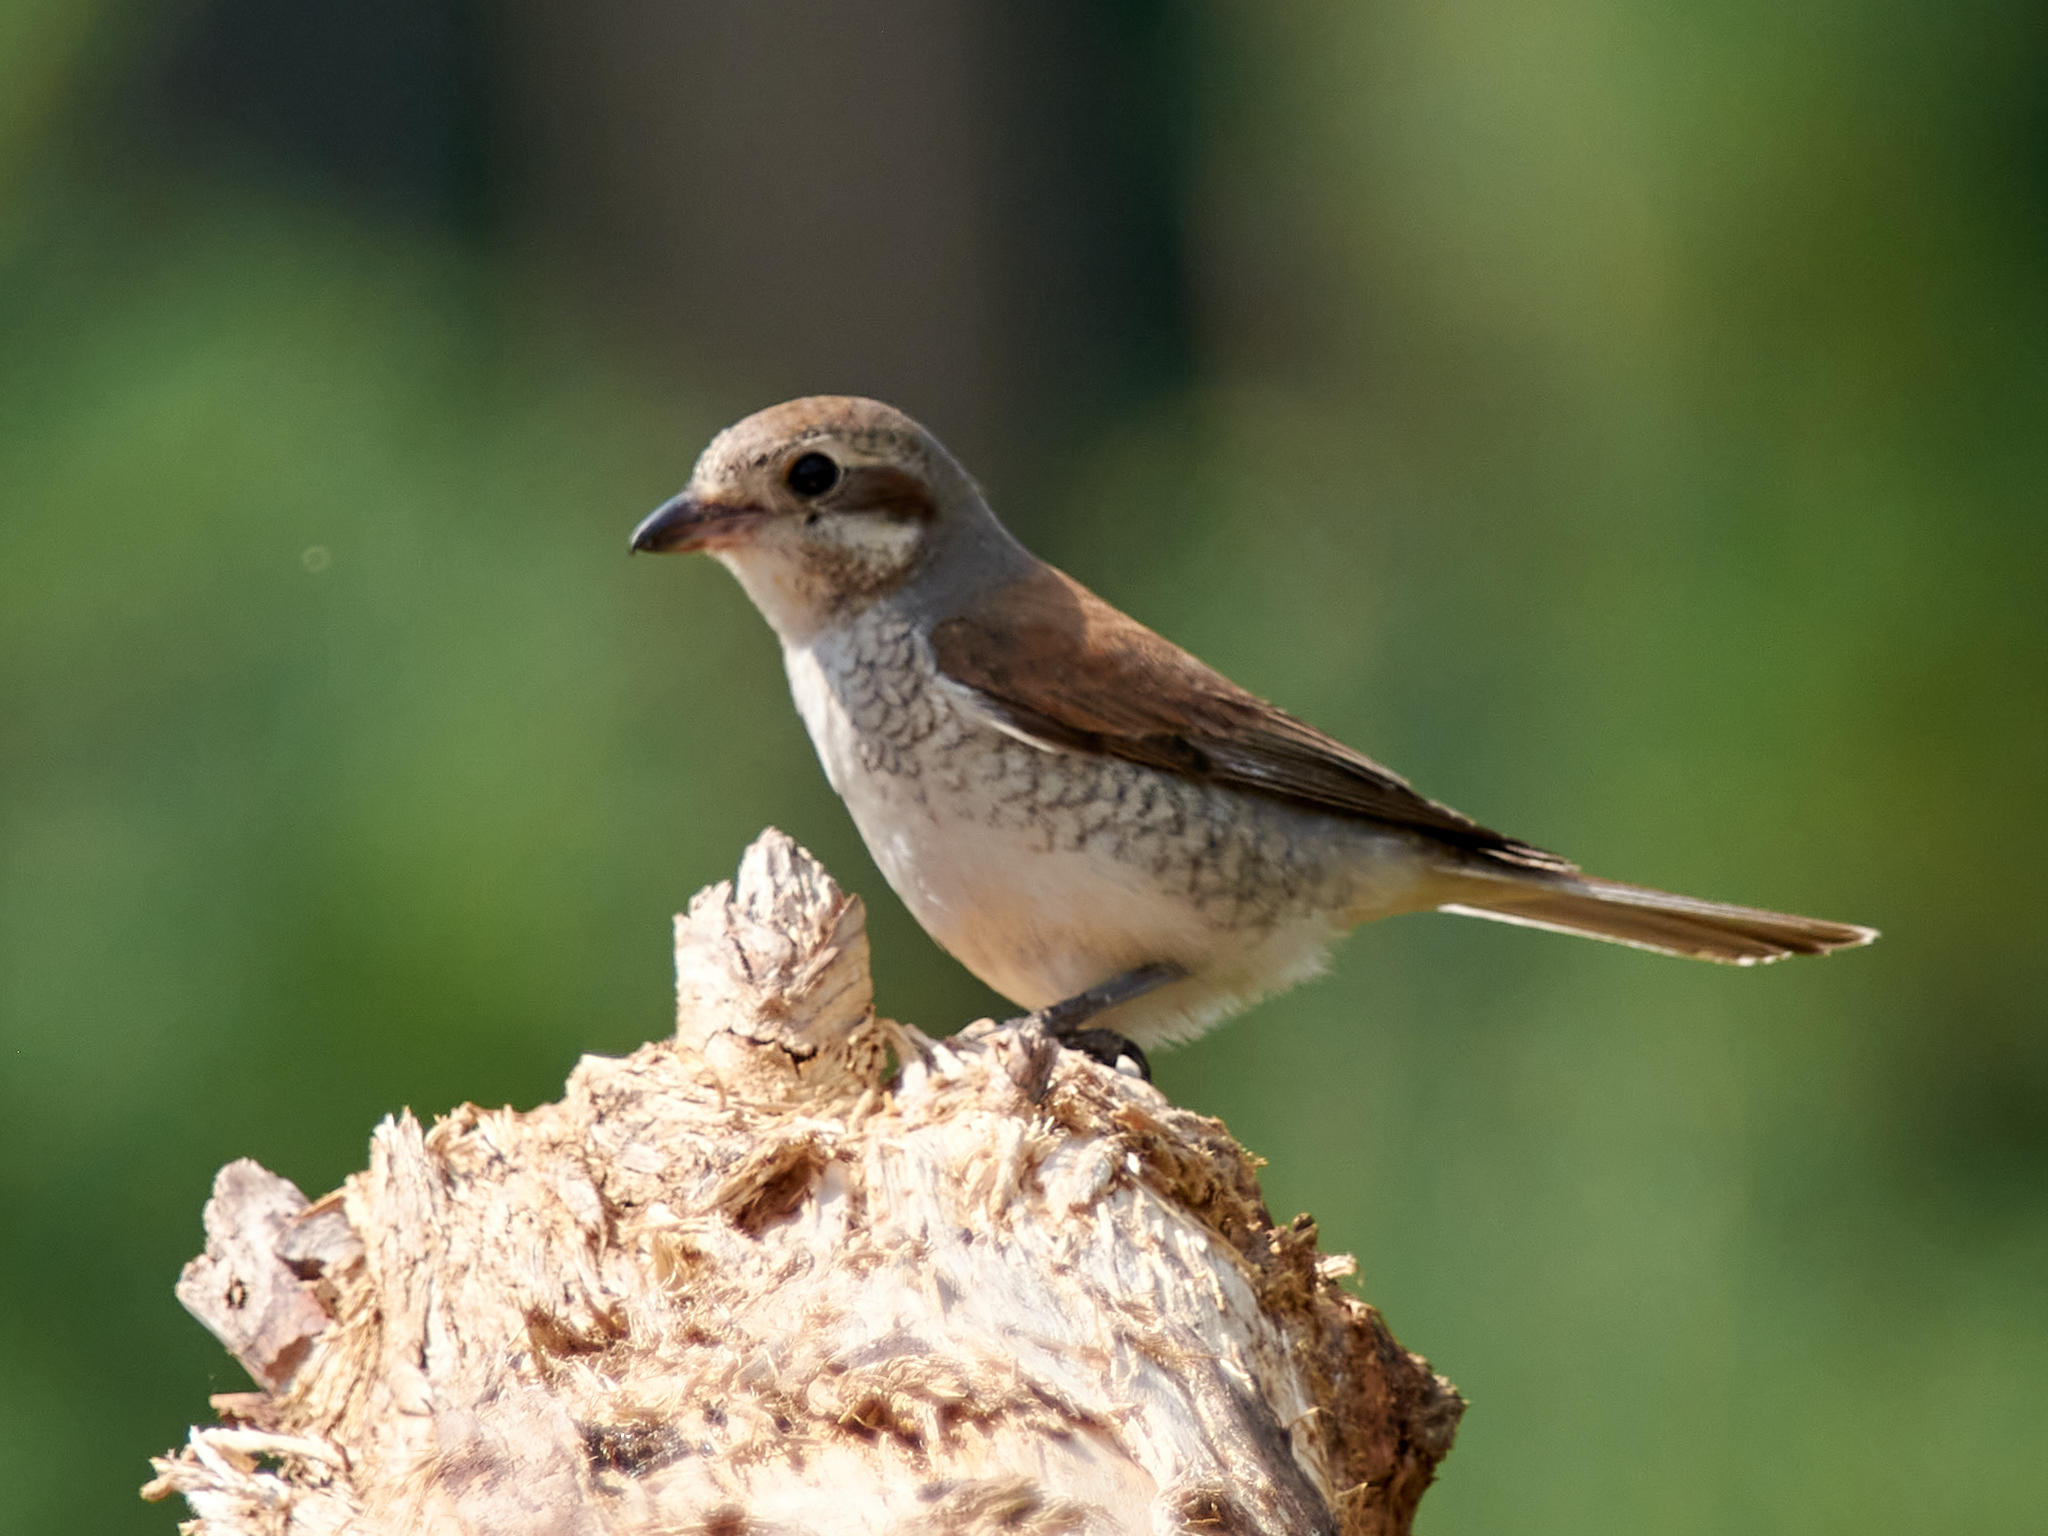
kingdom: Animalia
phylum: Chordata
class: Aves
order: Passeriformes
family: Laniidae
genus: Lanius
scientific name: Lanius collurio
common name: Red-backed shrike
